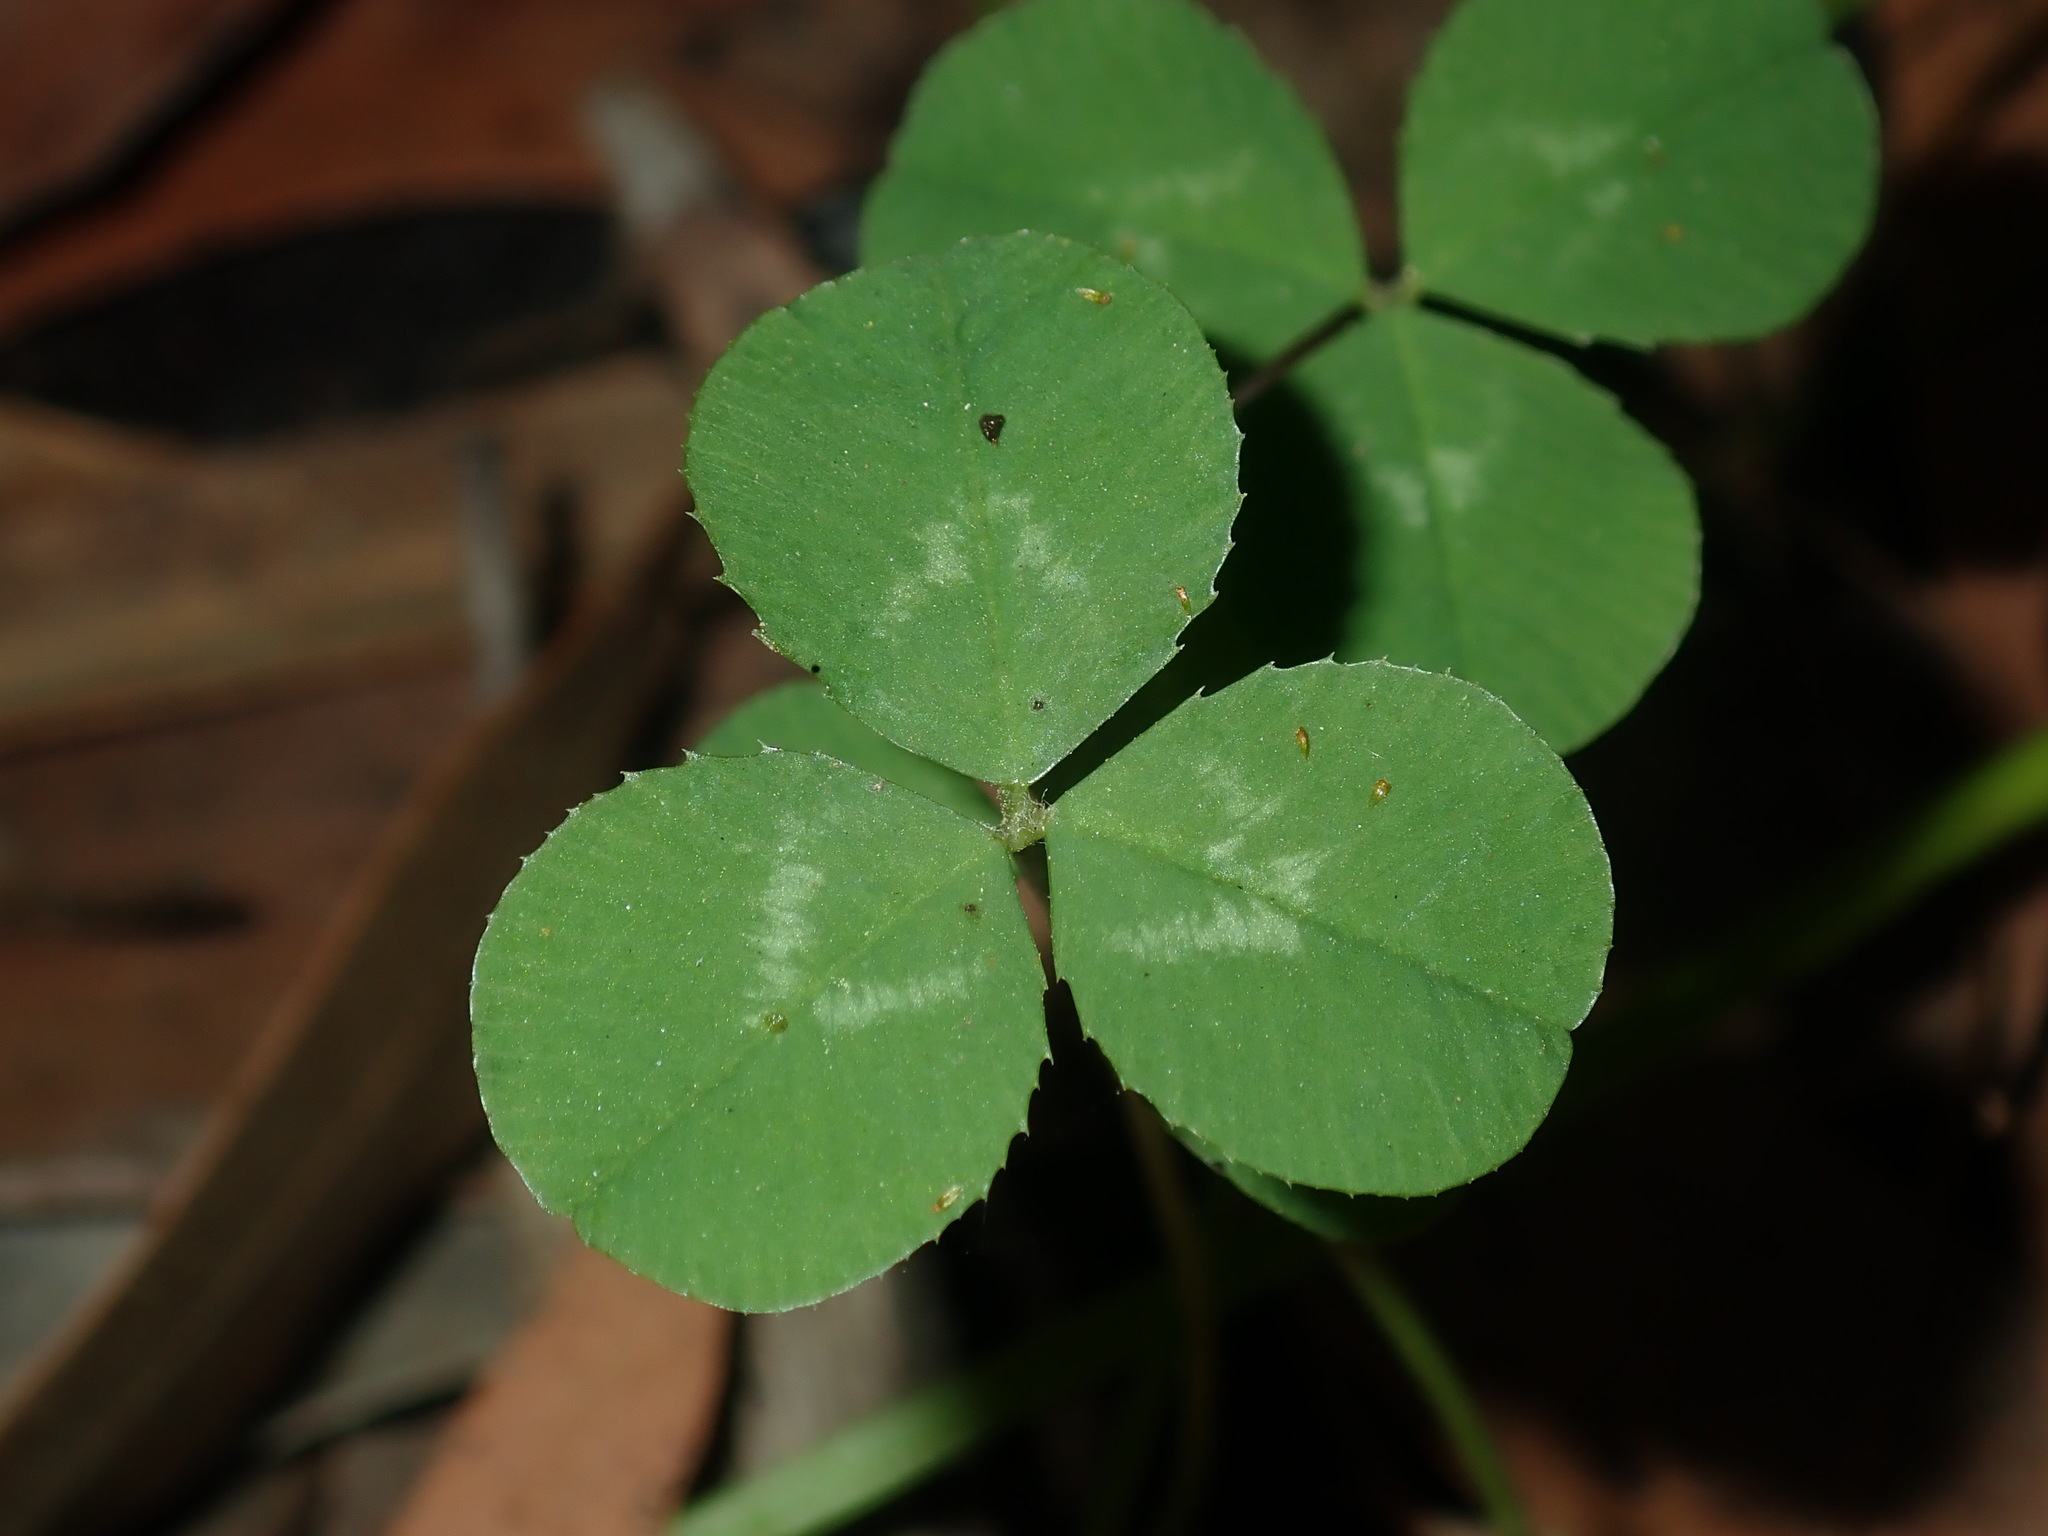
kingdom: Plantae
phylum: Tracheophyta
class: Magnoliopsida
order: Fabales
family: Fabaceae
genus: Trifolium
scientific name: Trifolium repens
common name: White clover
